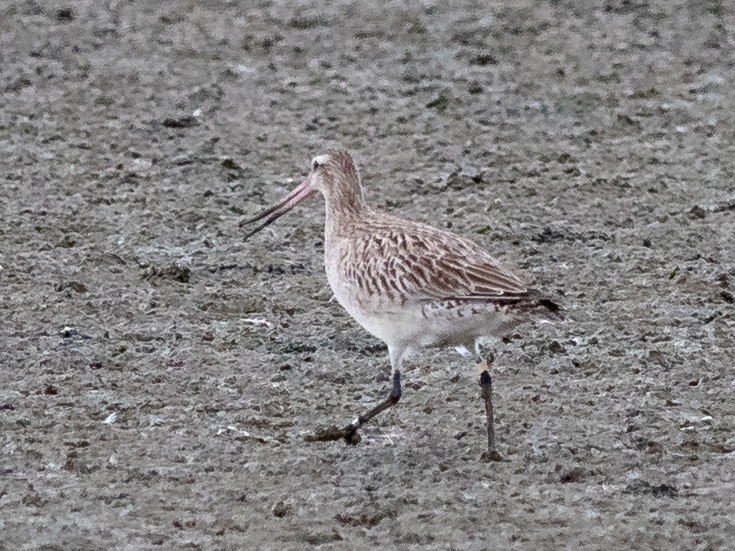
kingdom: Animalia
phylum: Chordata
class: Aves
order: Charadriiformes
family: Scolopacidae
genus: Limosa
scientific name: Limosa lapponica
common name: Bar-tailed godwit
